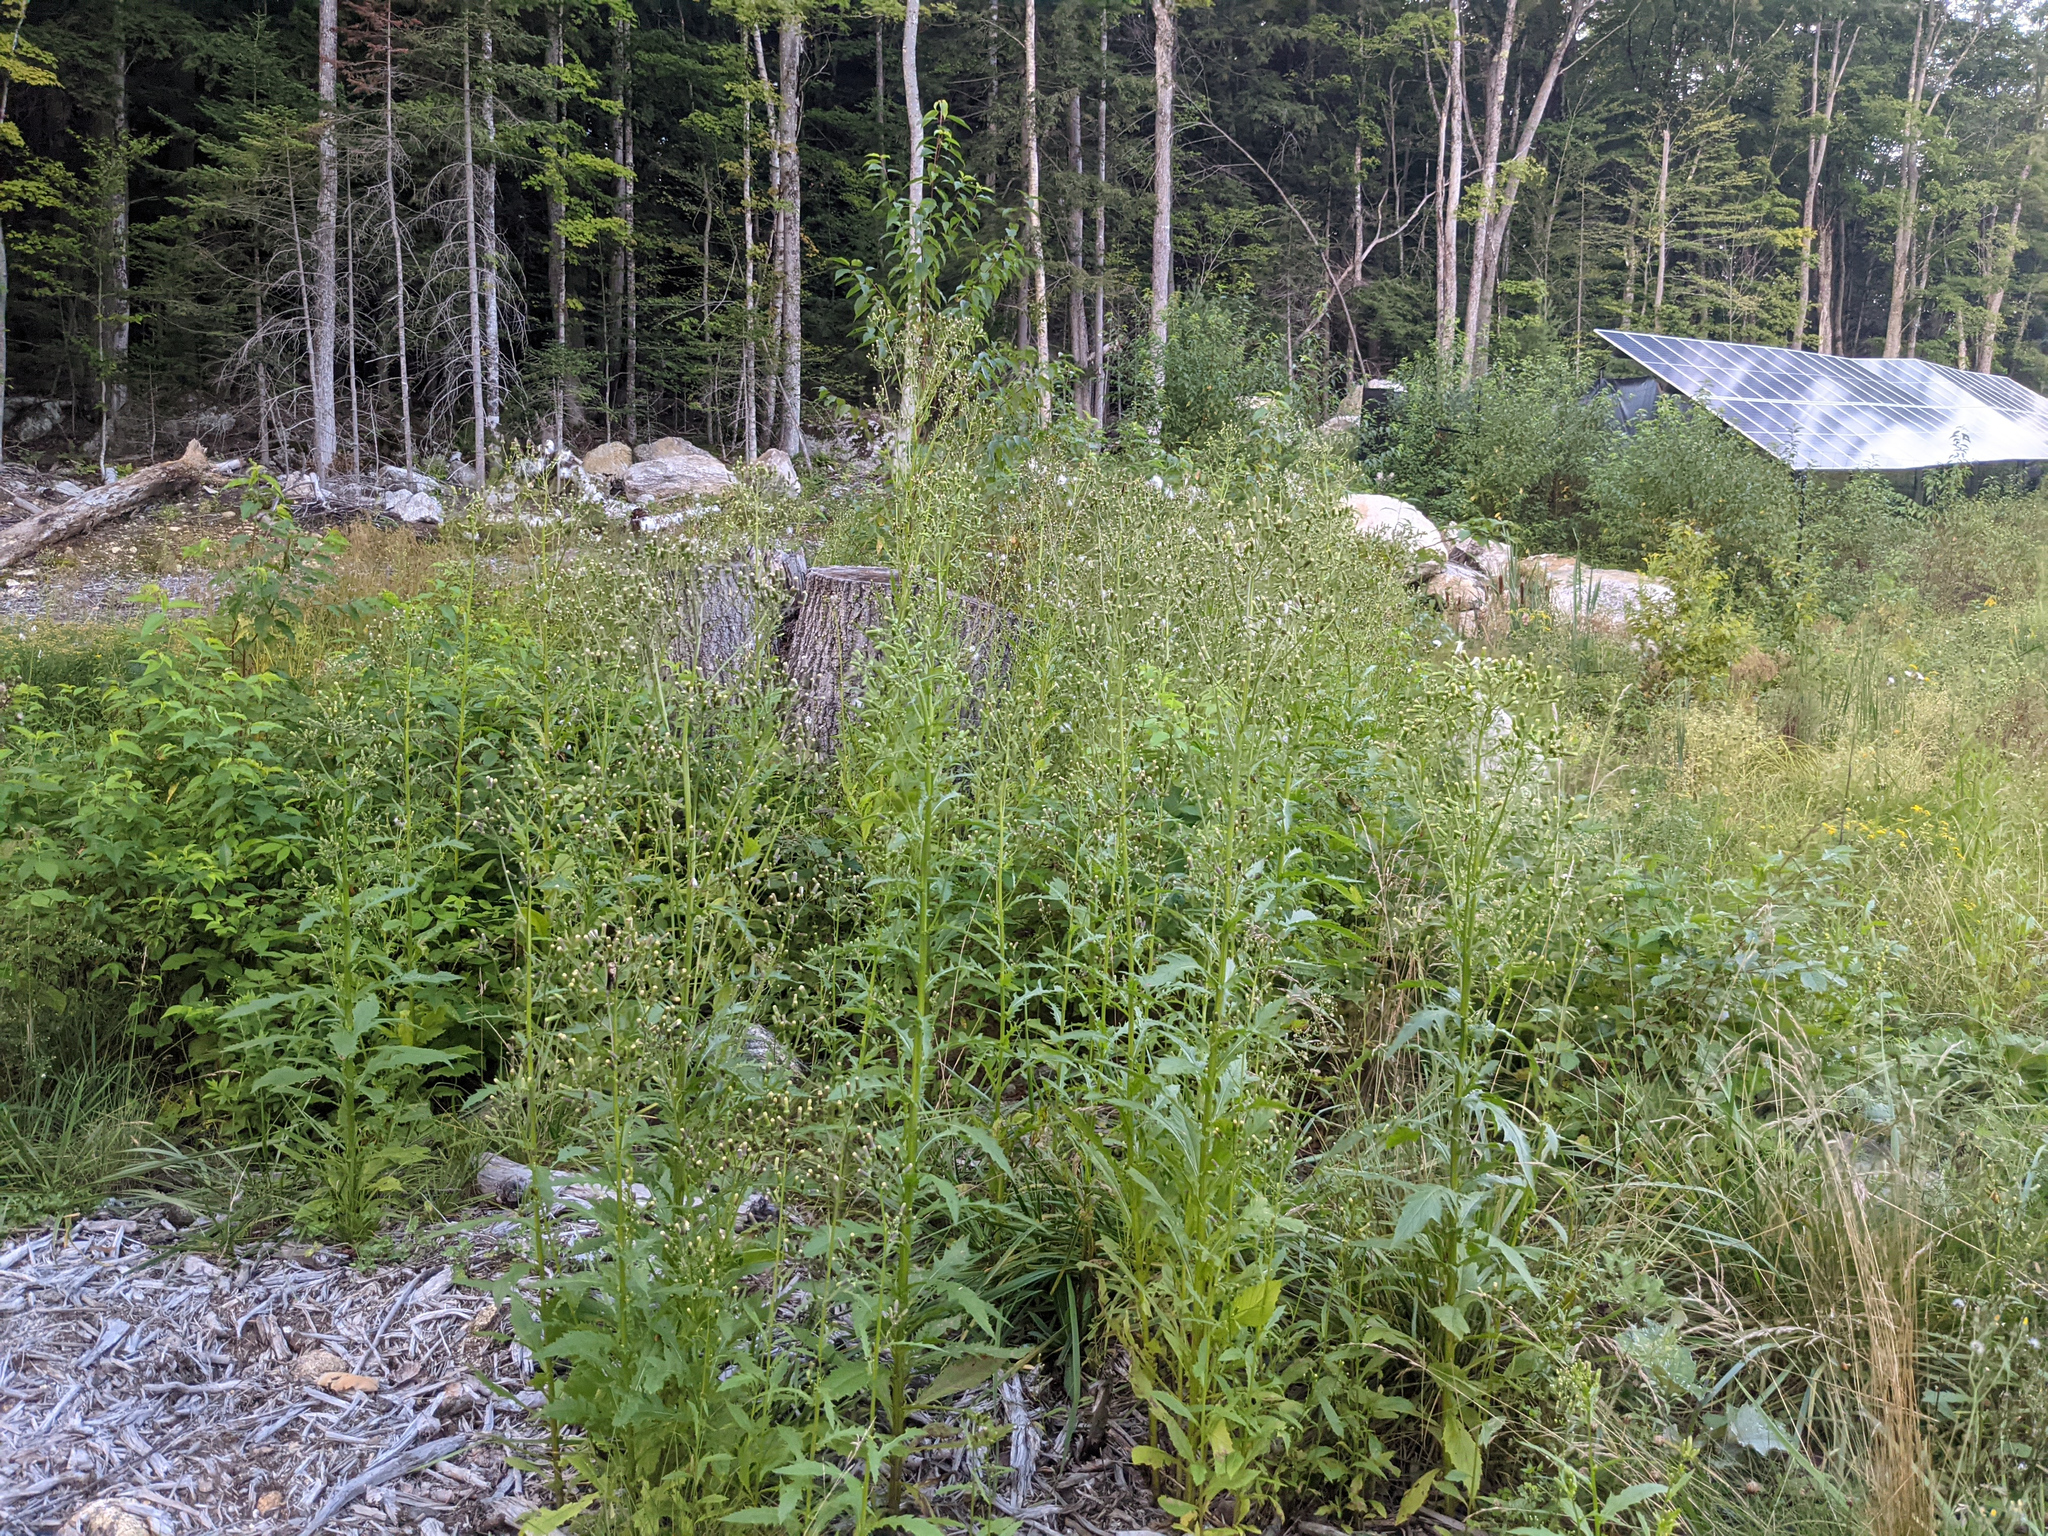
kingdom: Plantae
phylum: Tracheophyta
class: Magnoliopsida
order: Asterales
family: Asteraceae
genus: Erechtites
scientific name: Erechtites hieraciifolius
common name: American burnweed
